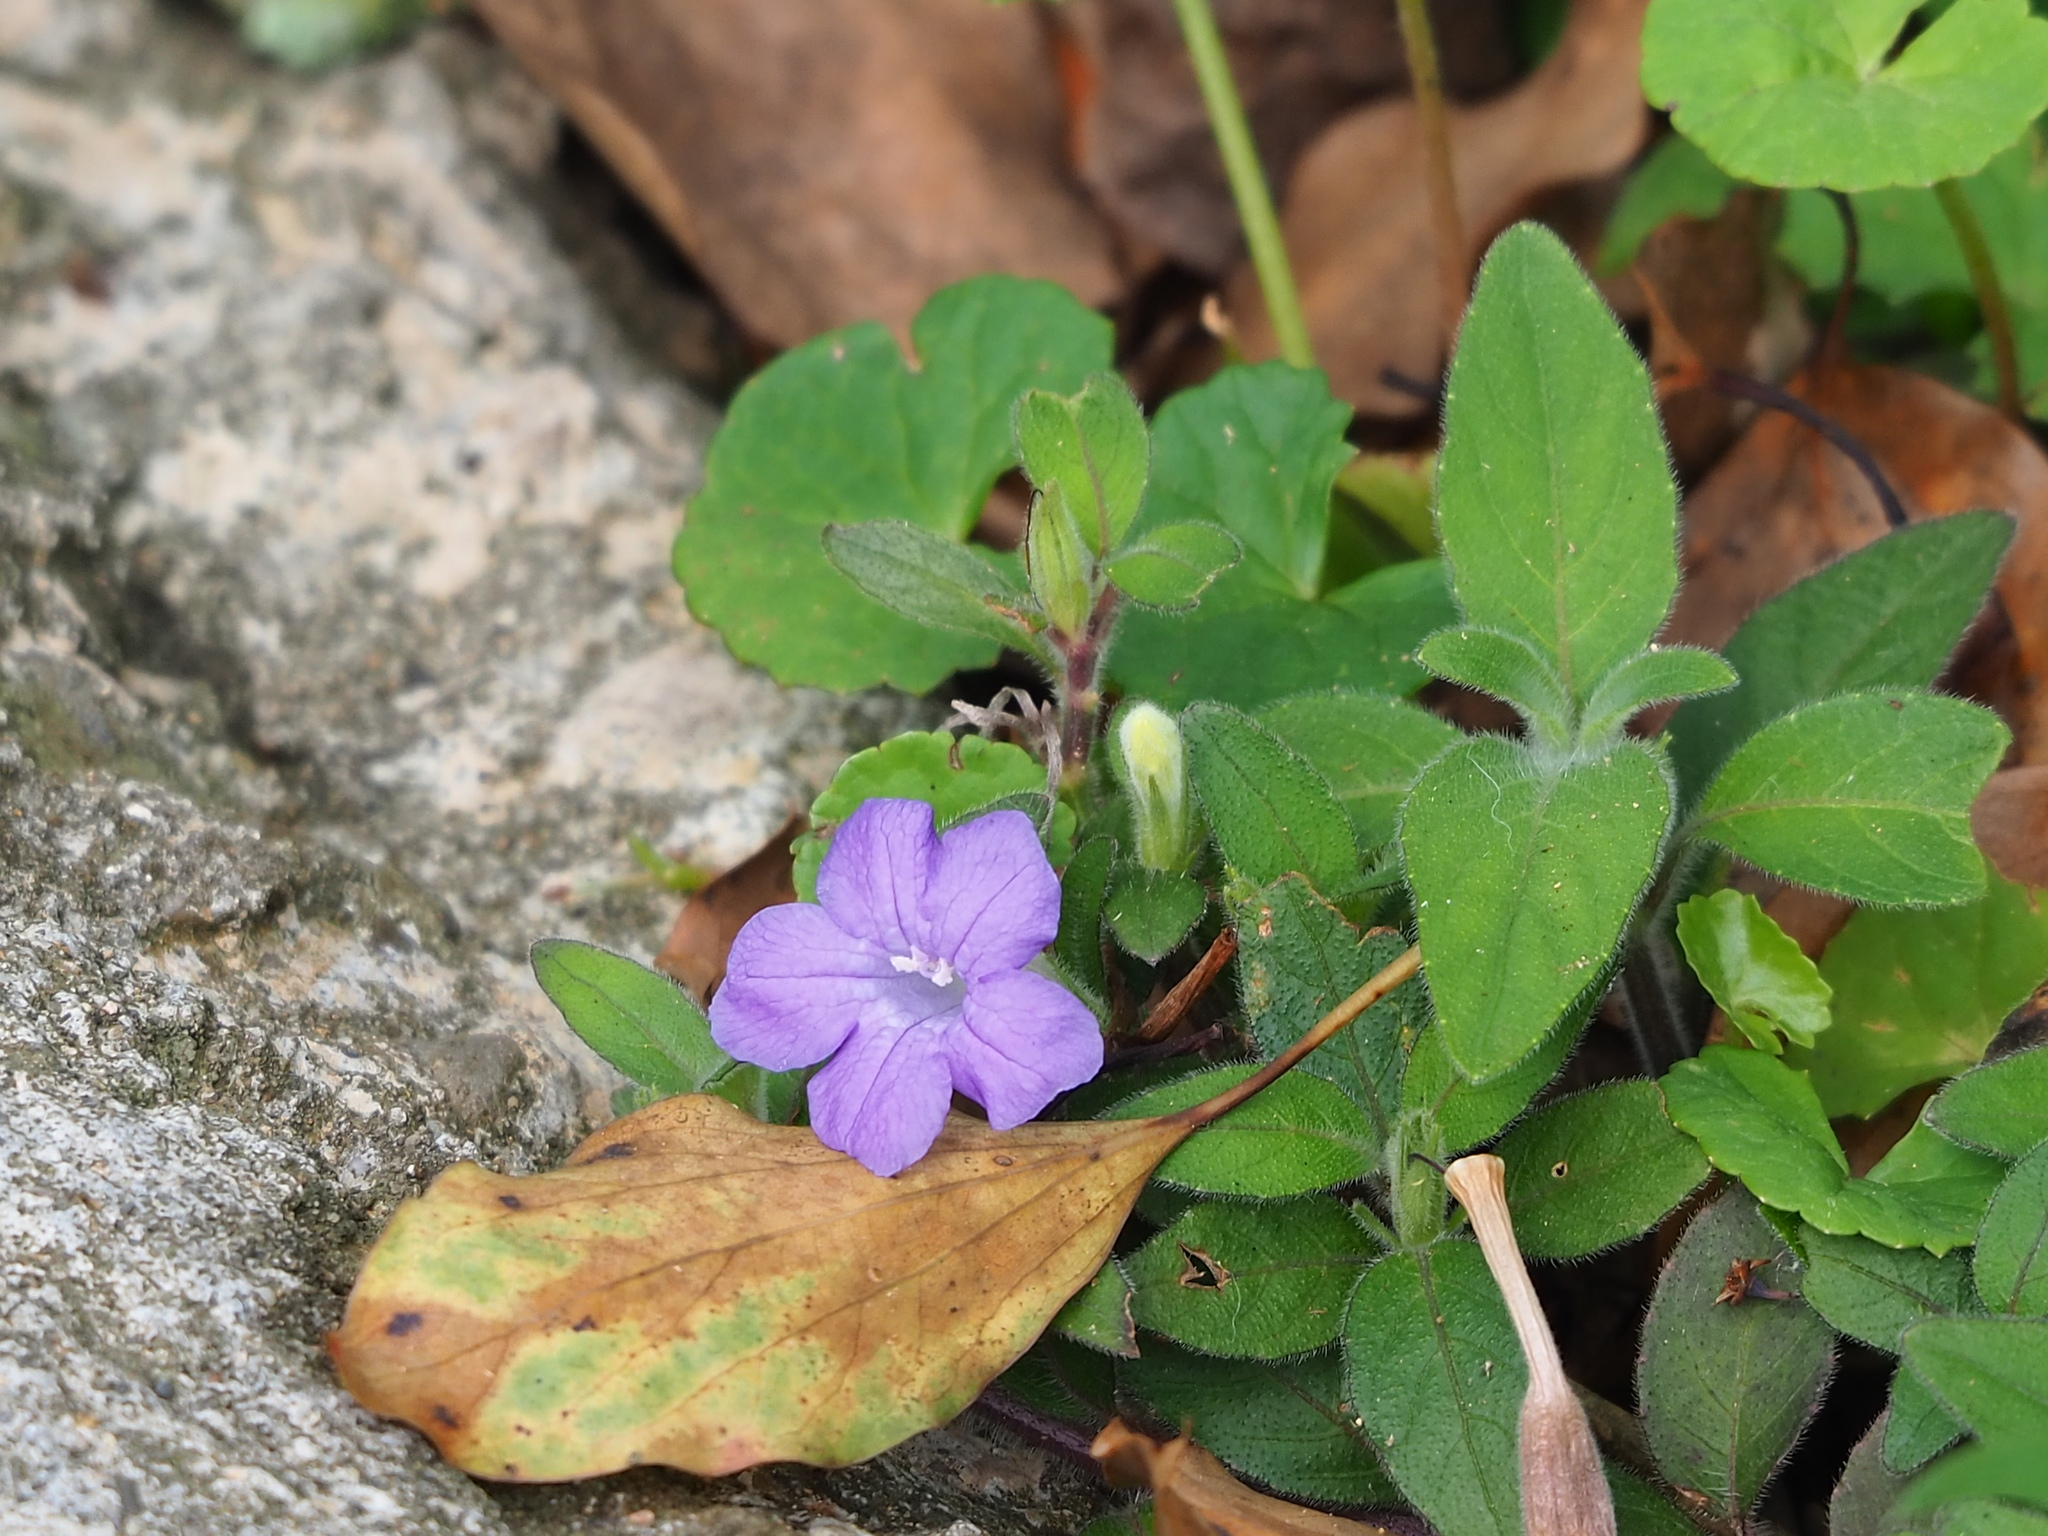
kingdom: Plantae
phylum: Tracheophyta
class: Magnoliopsida
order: Lamiales
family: Acanthaceae
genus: Ruellia
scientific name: Ruellia squarrosa
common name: Water bluebell
